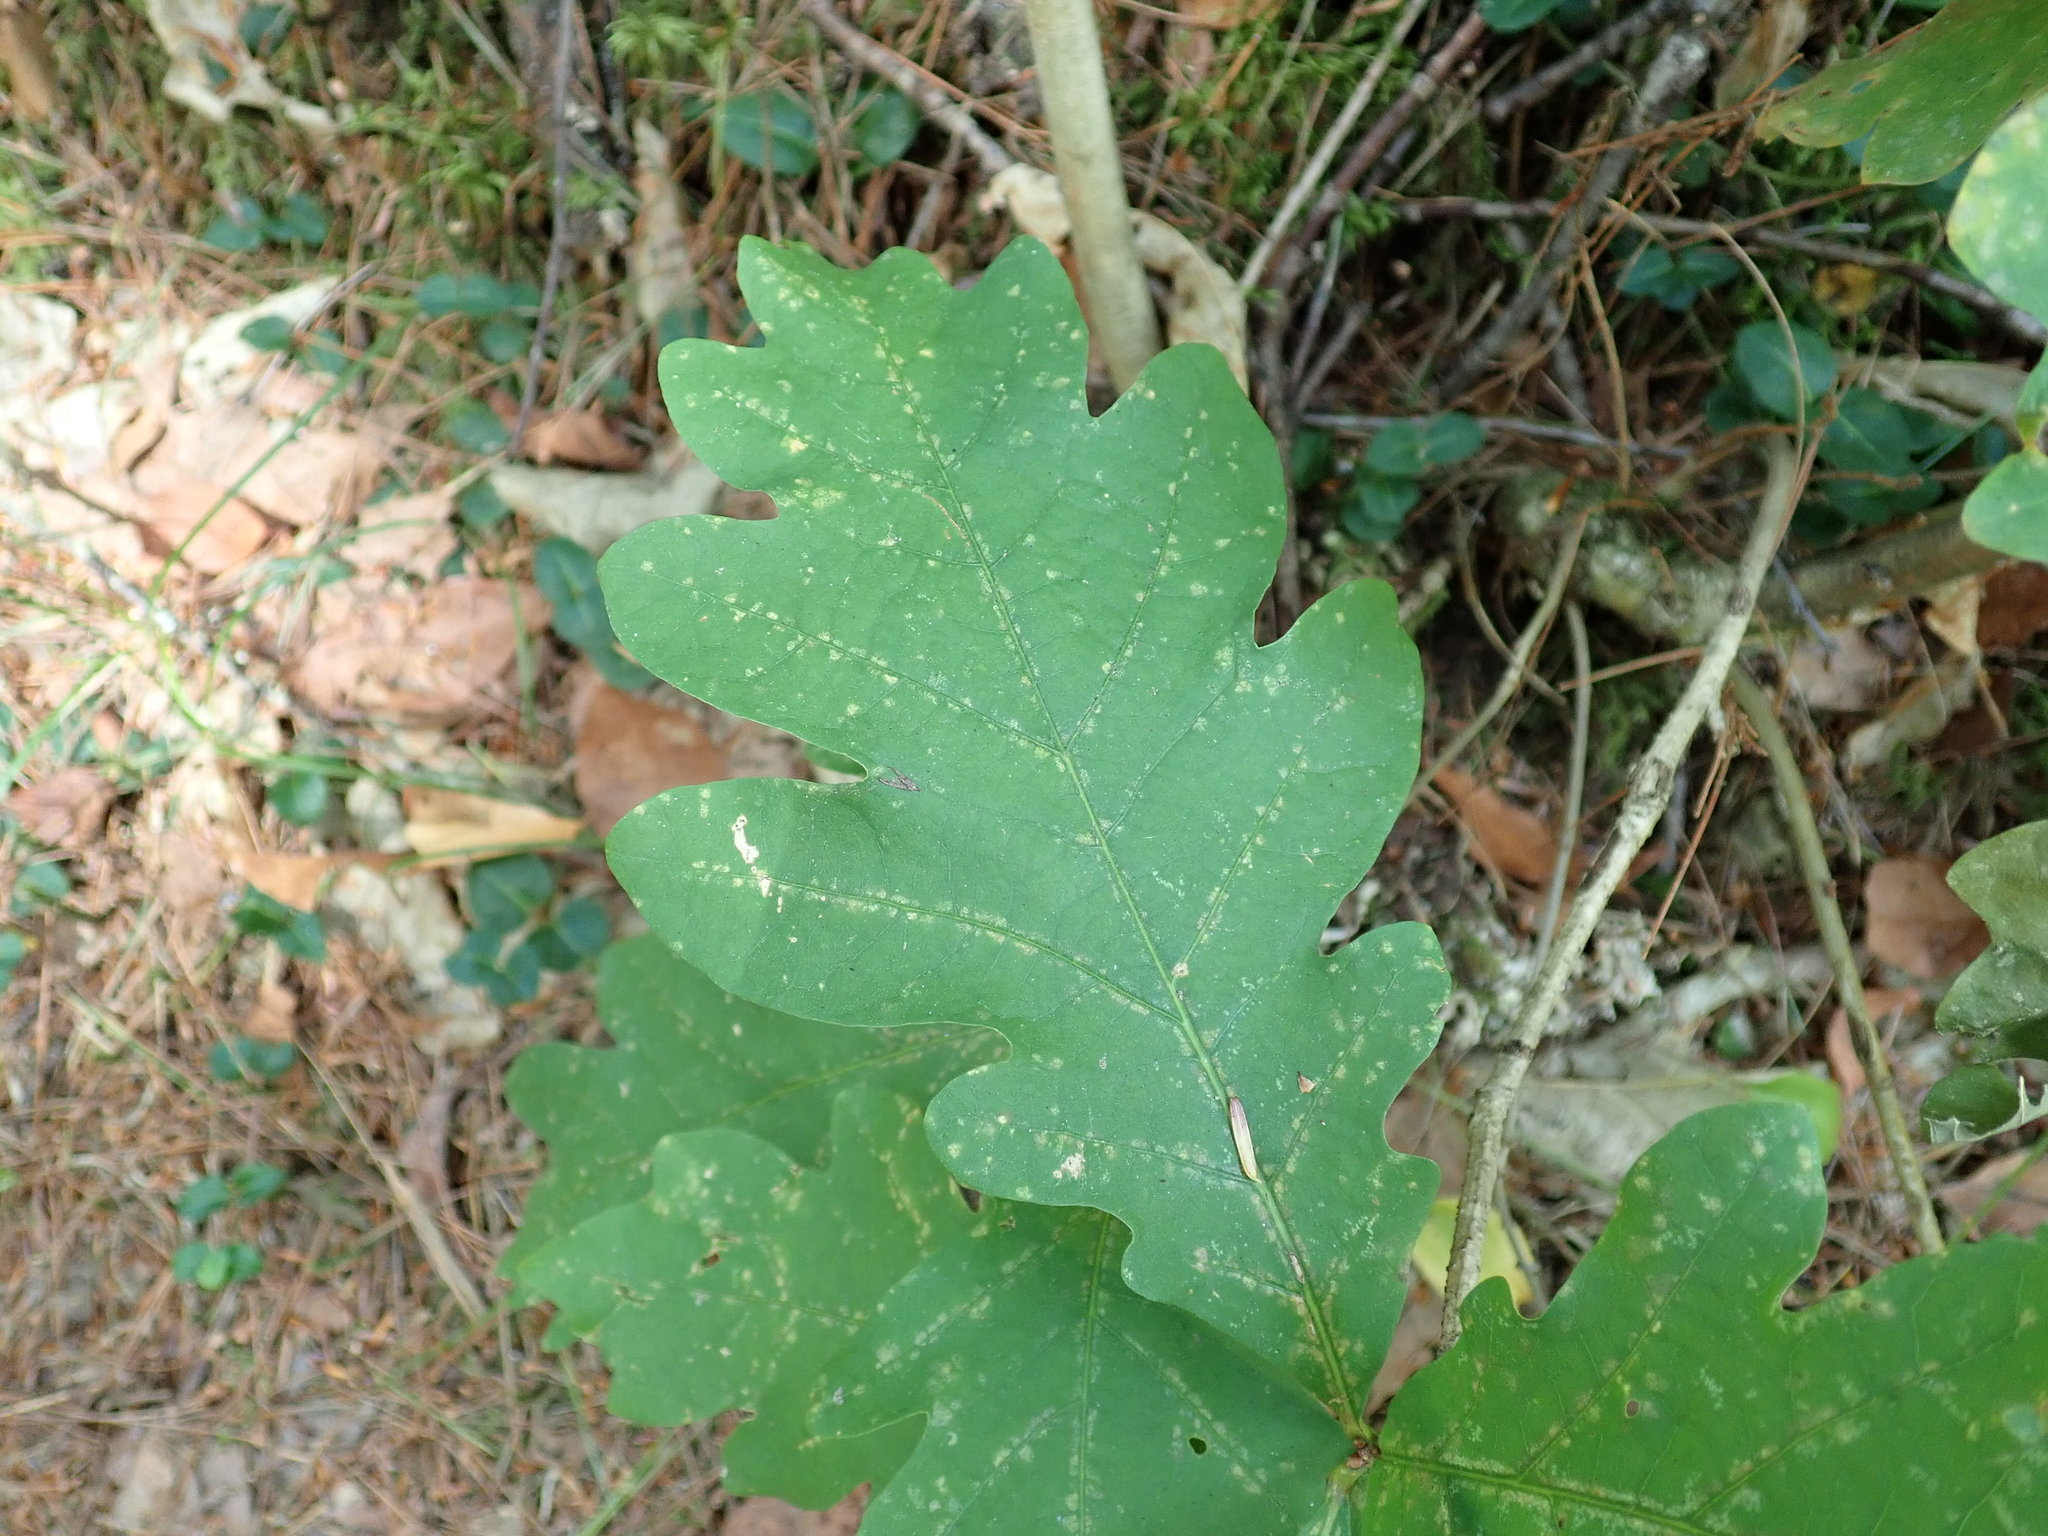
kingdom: Plantae
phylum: Tracheophyta
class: Magnoliopsida
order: Fagales
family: Fagaceae
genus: Quercus
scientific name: Quercus alba
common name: White oak
